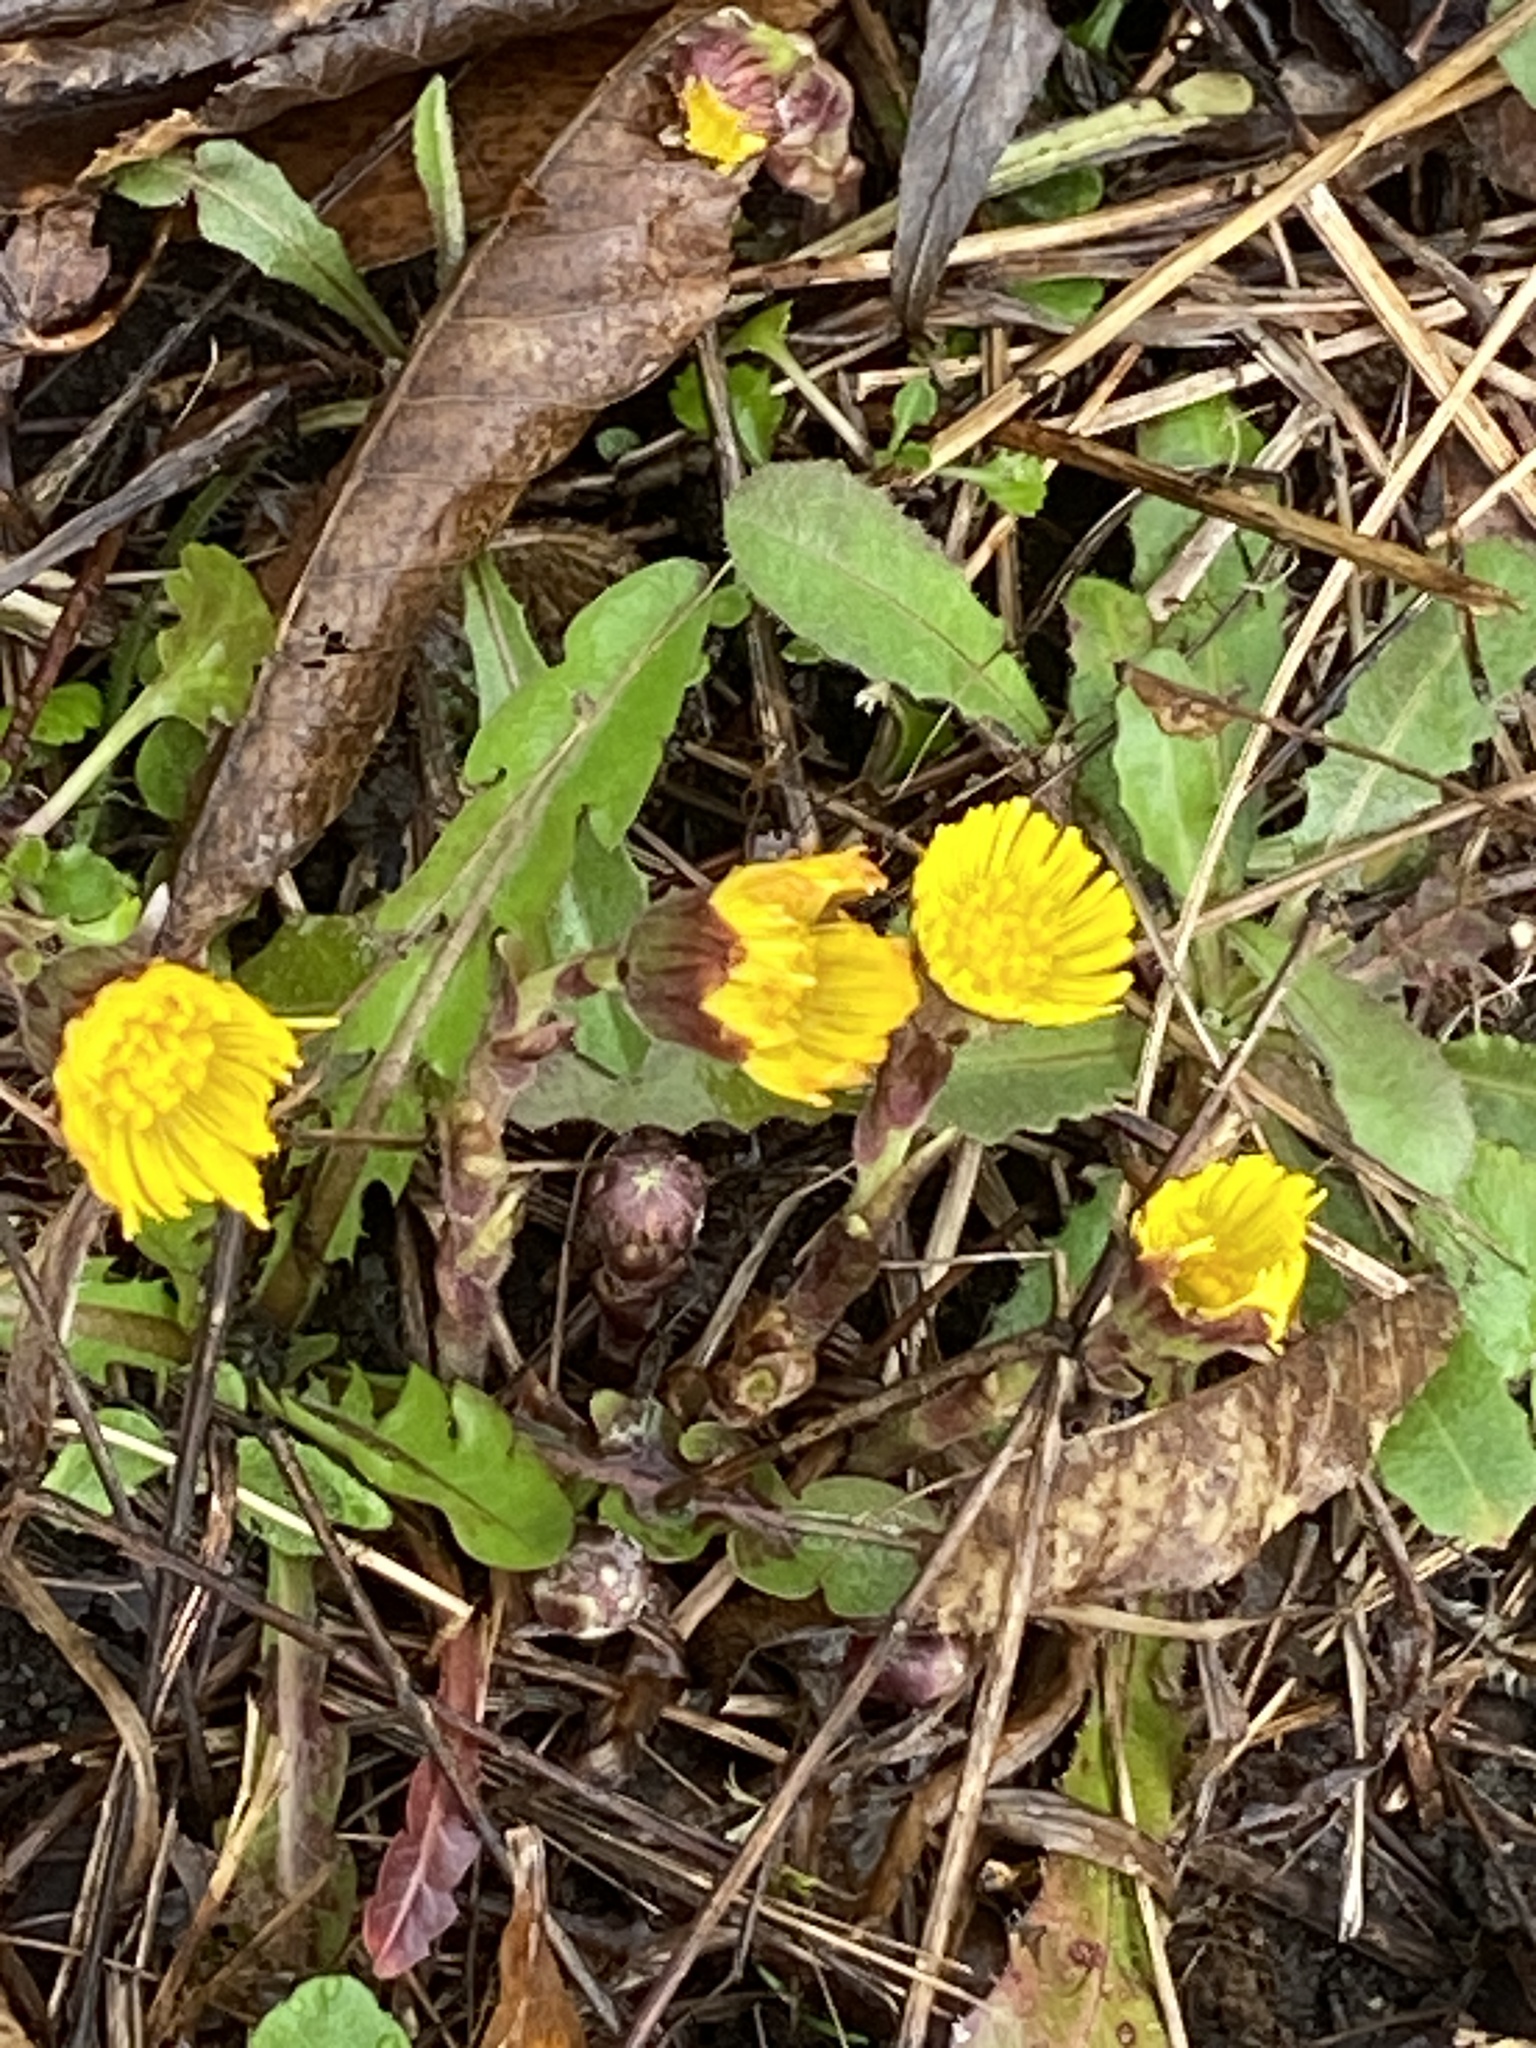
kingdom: Plantae
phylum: Tracheophyta
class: Magnoliopsida
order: Asterales
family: Asteraceae
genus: Tussilago
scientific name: Tussilago farfara
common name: Coltsfoot
